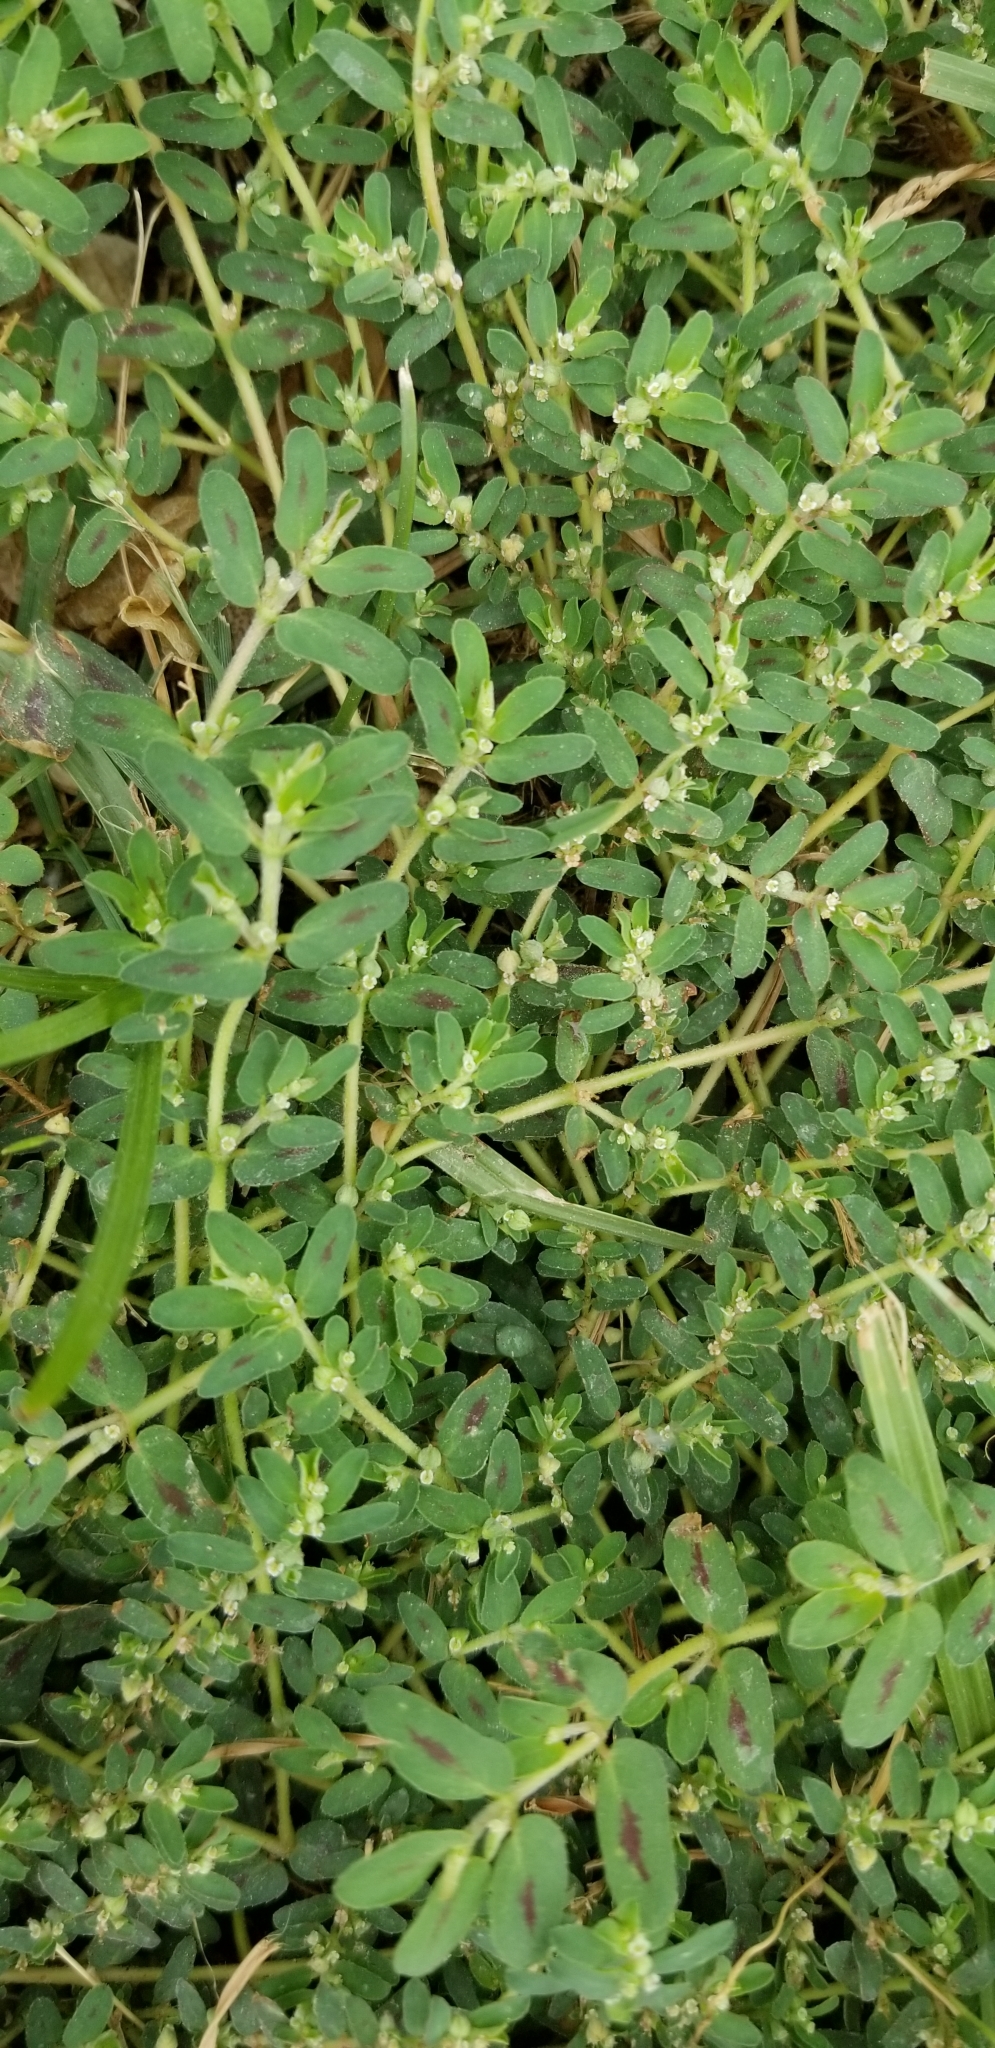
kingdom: Plantae
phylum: Tracheophyta
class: Magnoliopsida
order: Malpighiales
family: Euphorbiaceae
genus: Euphorbia
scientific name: Euphorbia maculata
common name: Spotted spurge
